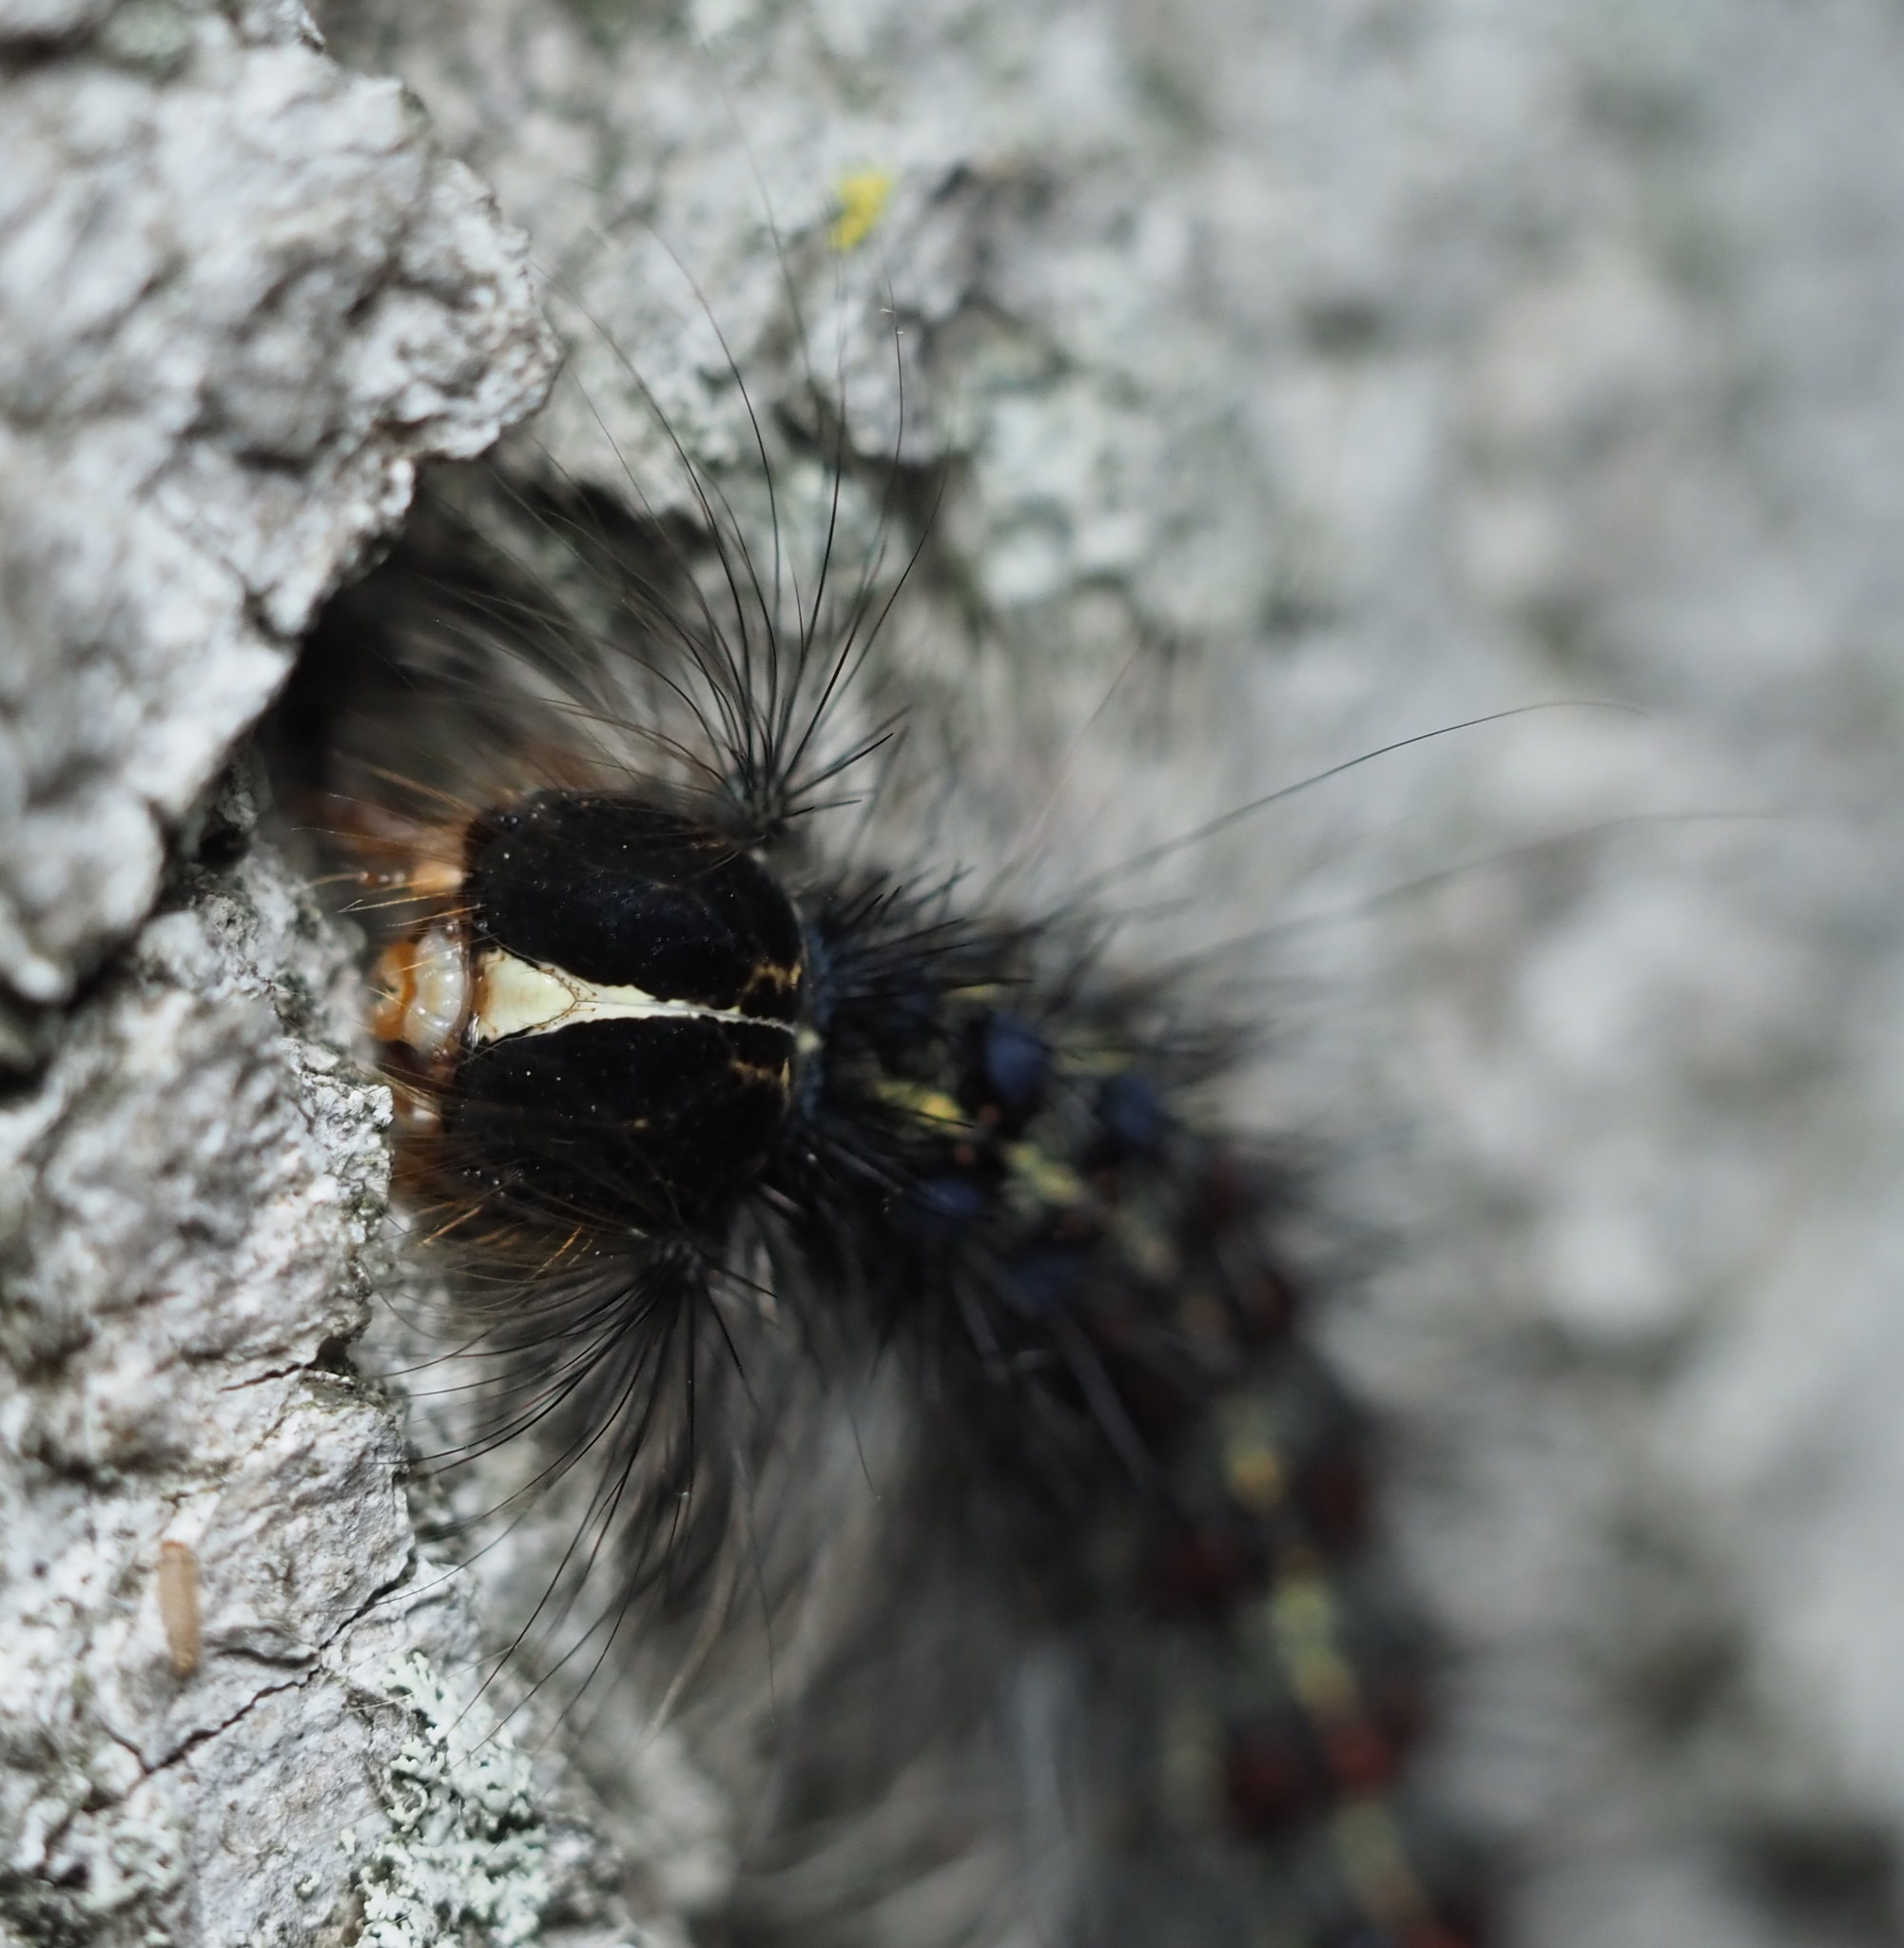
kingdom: Animalia
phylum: Arthropoda
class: Insecta
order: Lepidoptera
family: Erebidae
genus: Lymantria
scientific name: Lymantria dispar
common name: Gypsy moth
